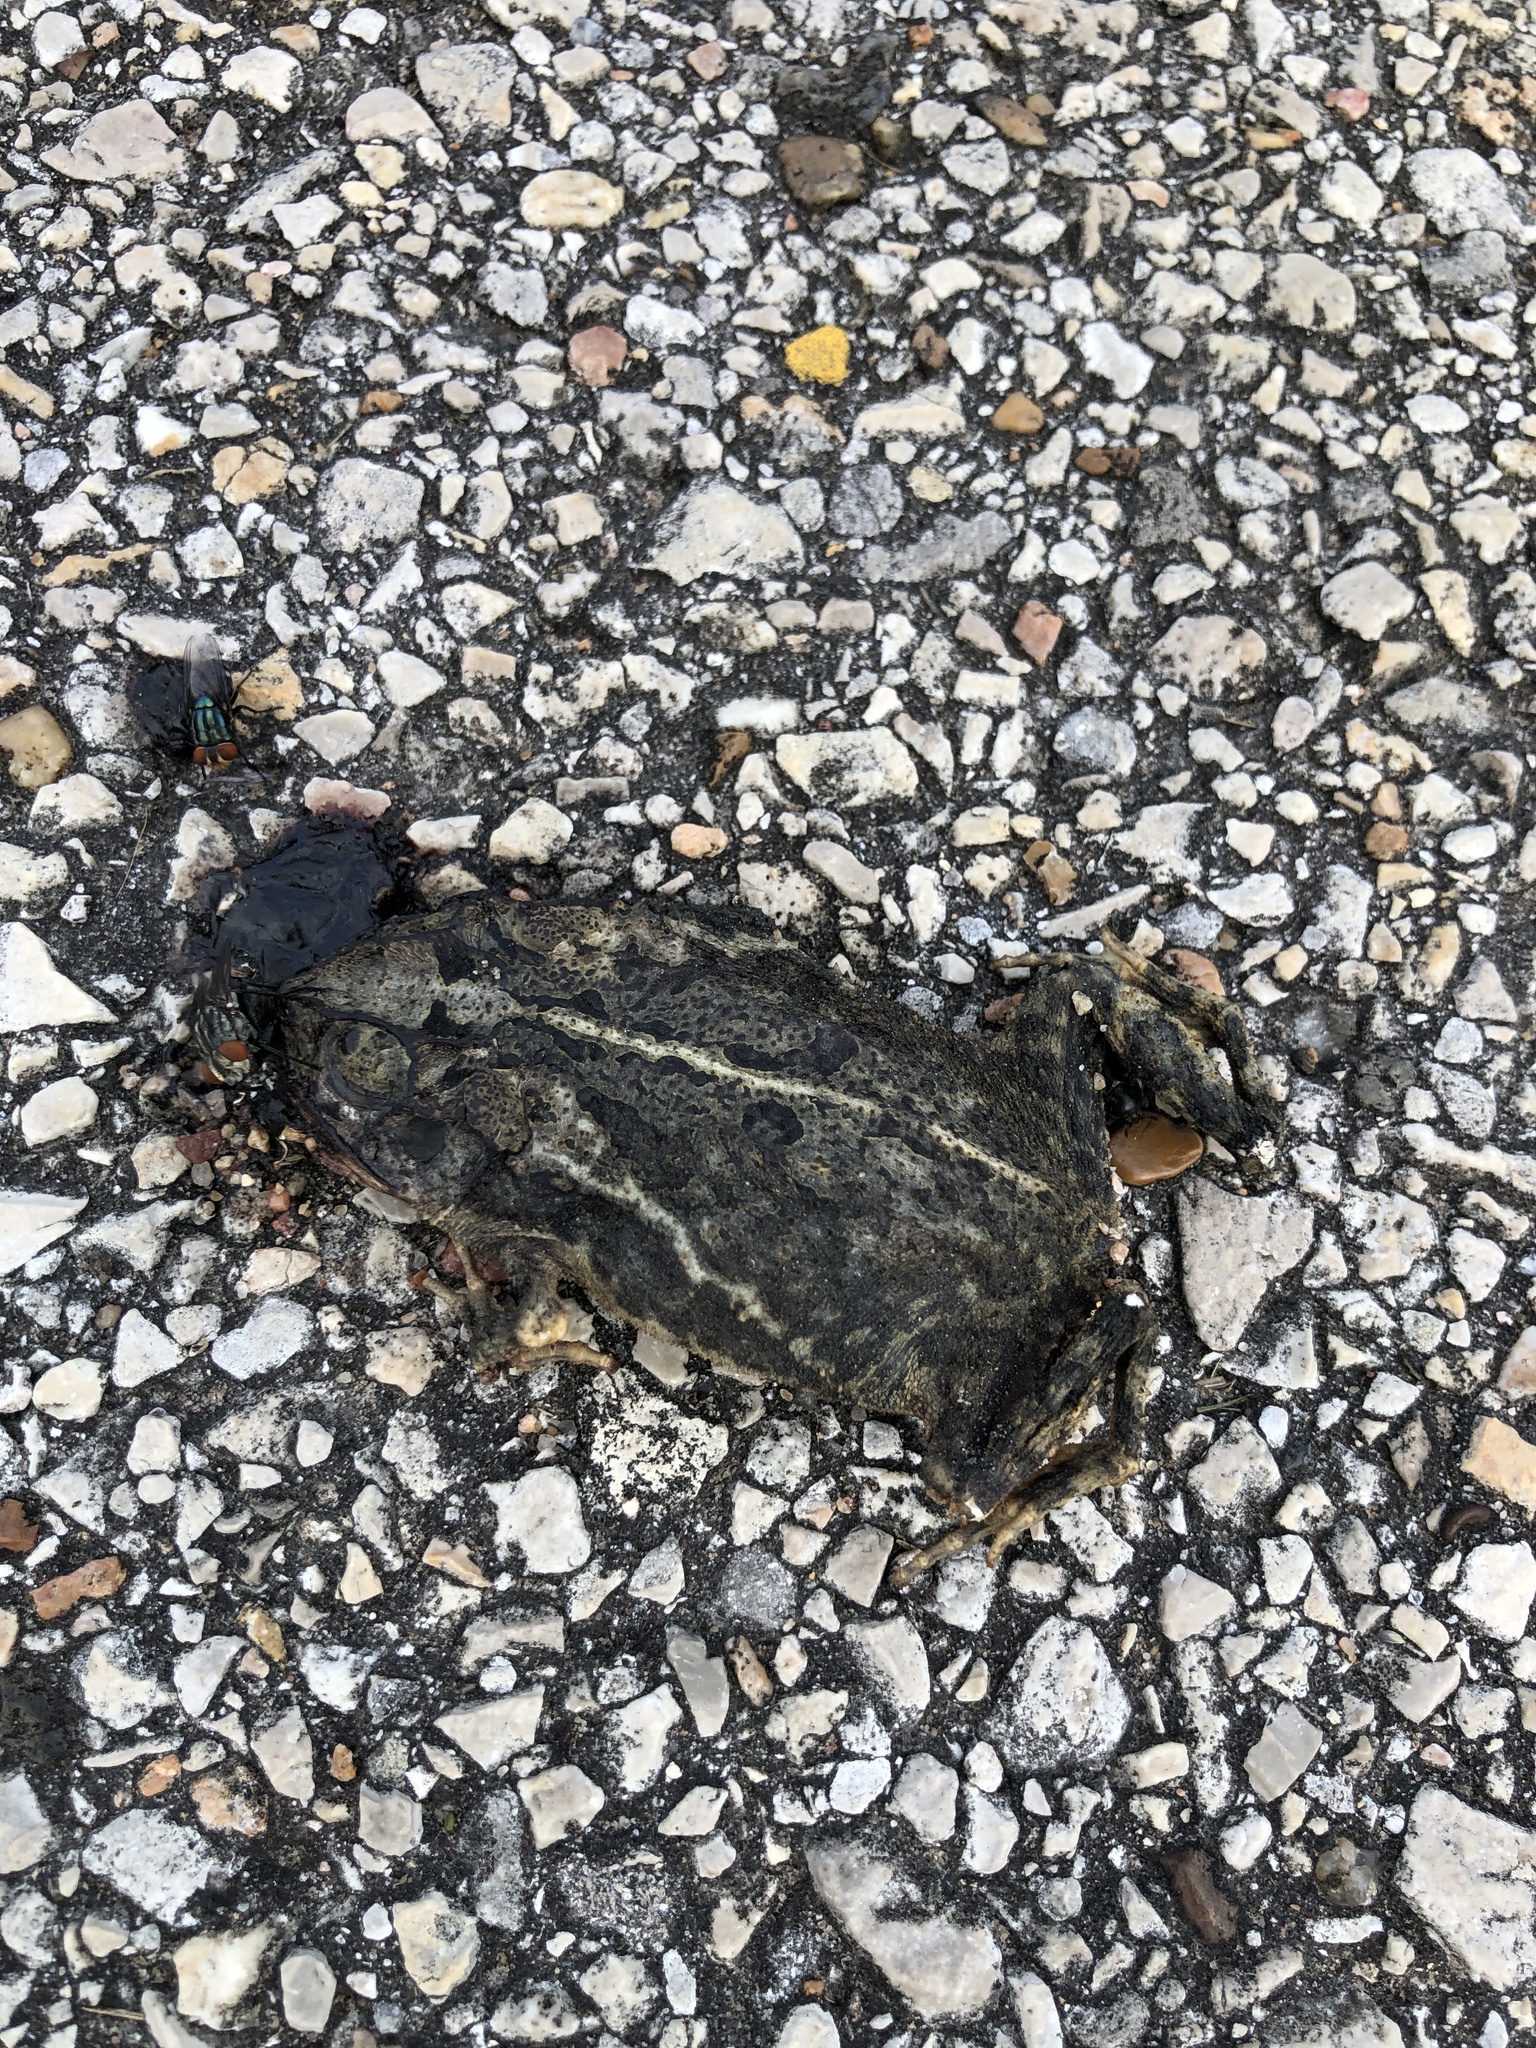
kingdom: Animalia
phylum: Chordata
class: Amphibia
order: Anura
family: Bufonidae
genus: Incilius
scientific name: Incilius nebulifer
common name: Gulf coast toad
